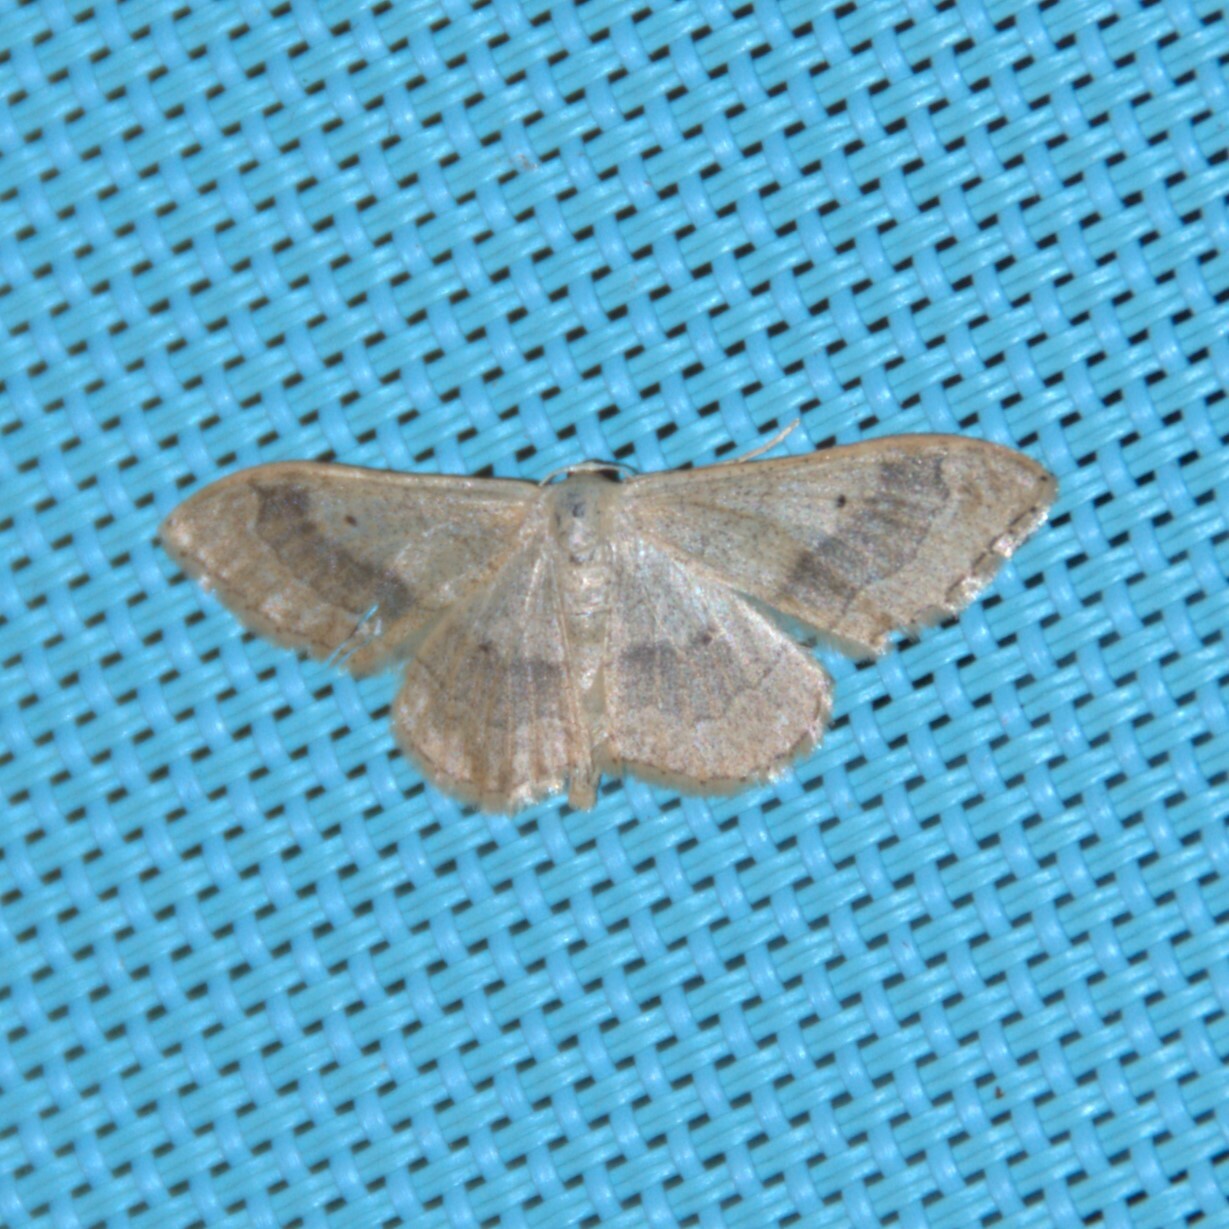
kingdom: Animalia
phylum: Arthropoda
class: Insecta
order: Lepidoptera
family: Geometridae
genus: Idaea
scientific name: Idaea aversata
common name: Riband wave
